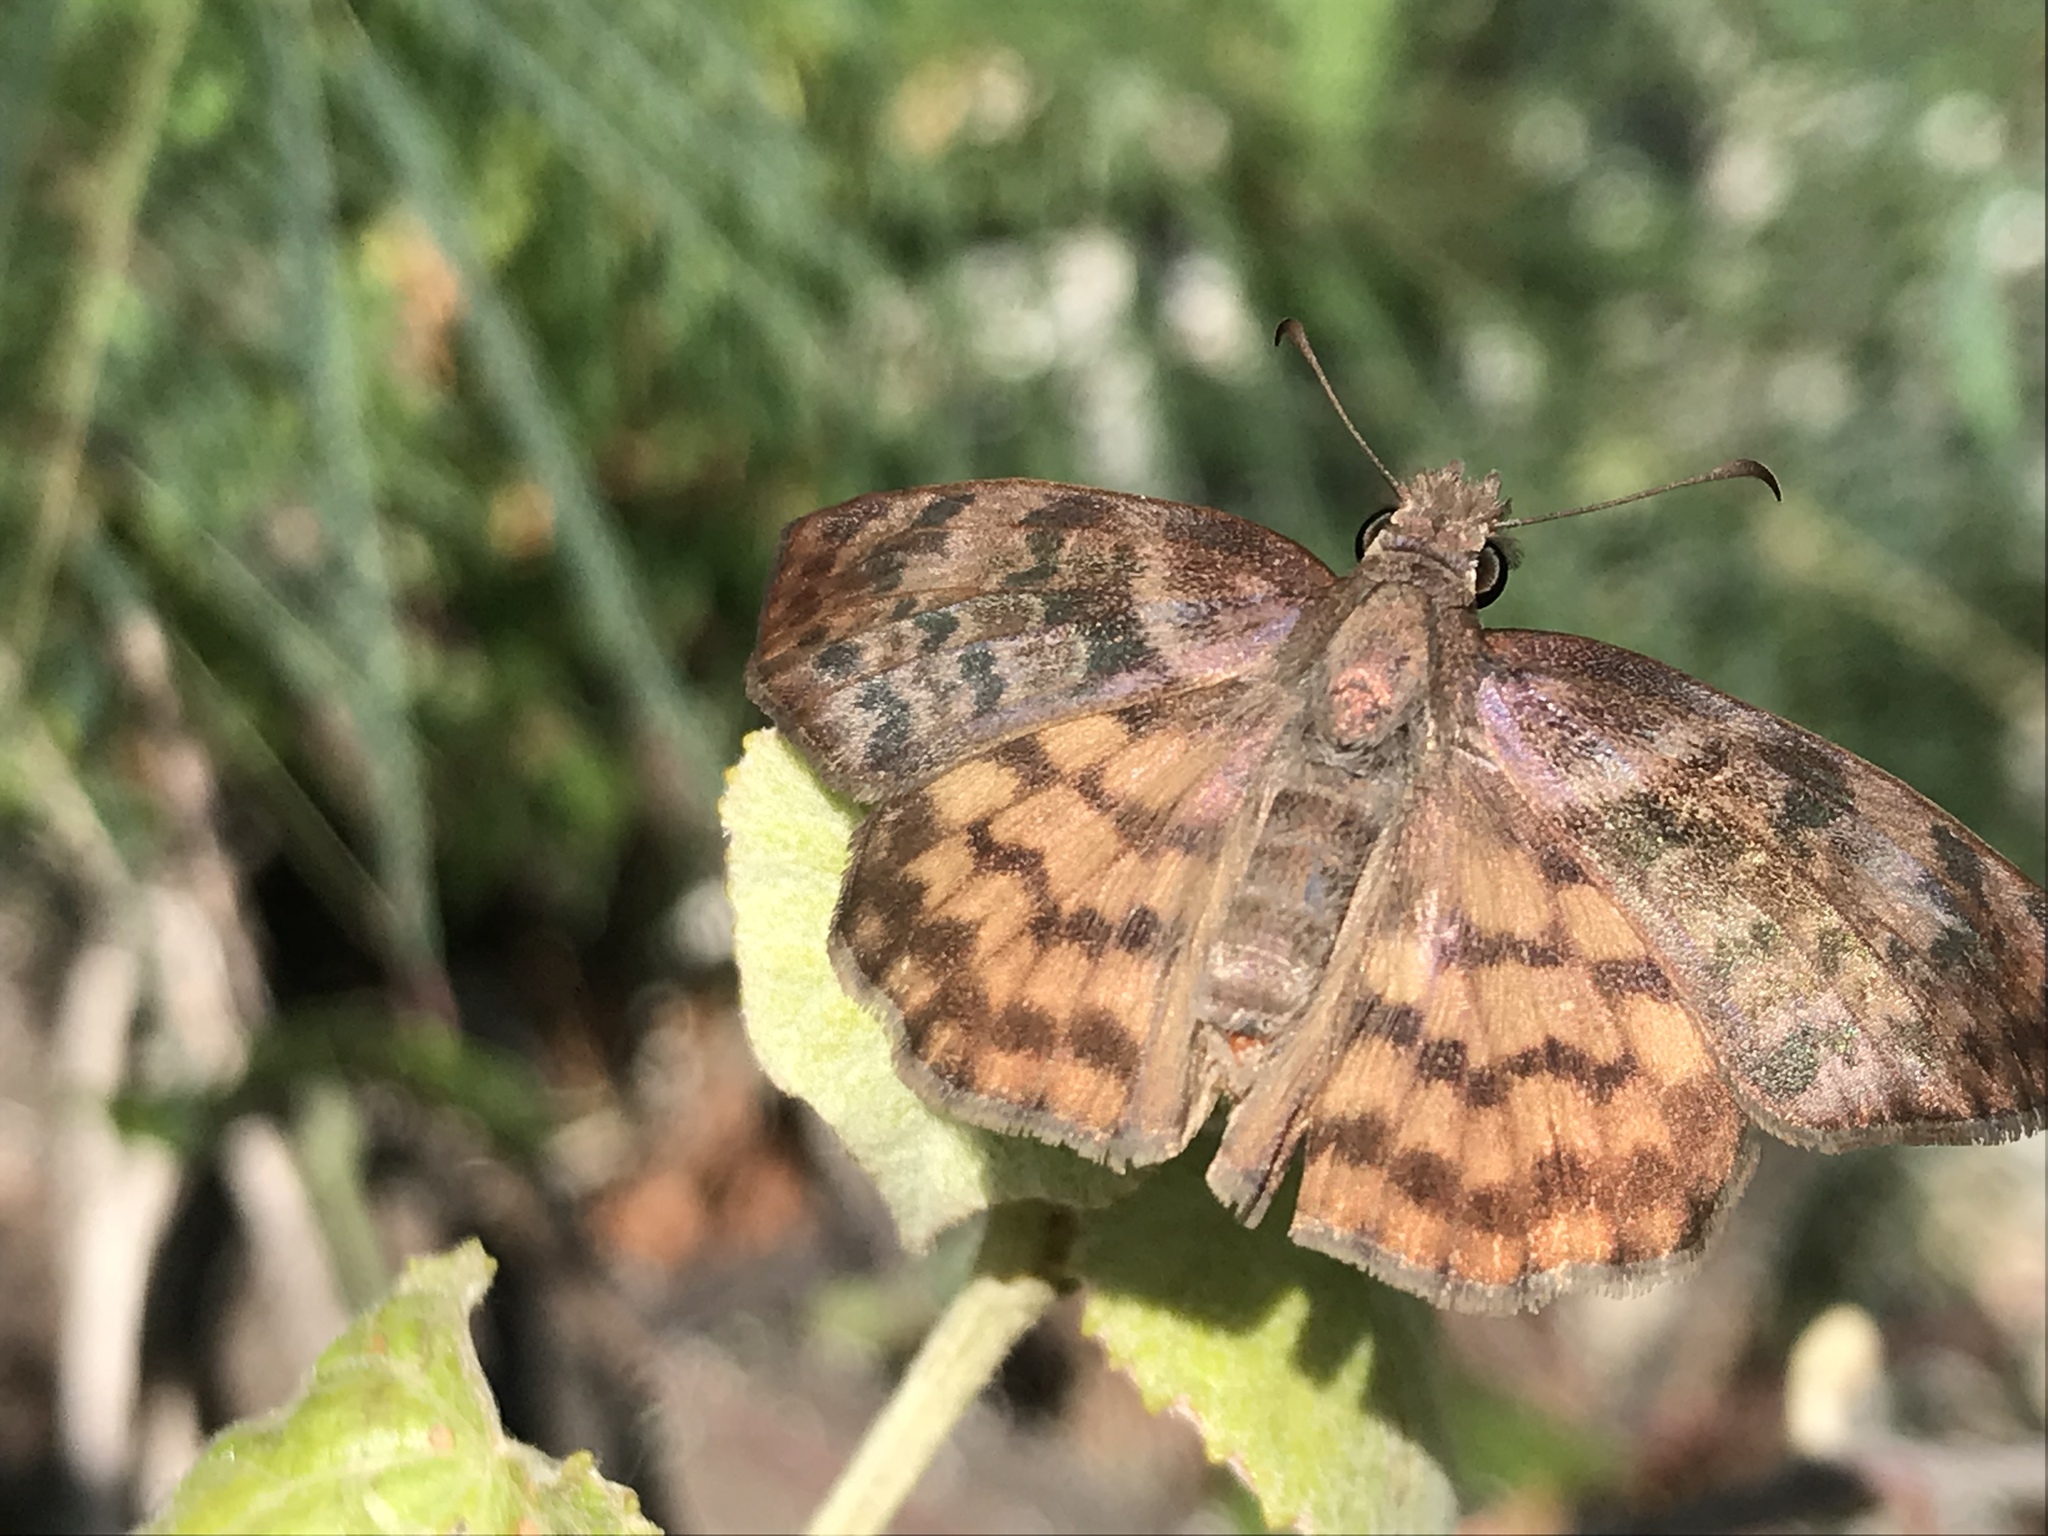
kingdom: Animalia
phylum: Arthropoda
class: Insecta
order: Lepidoptera
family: Hesperiidae
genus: Timochares
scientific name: Timochares ruptifasciata
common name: Brown-banded skipper
